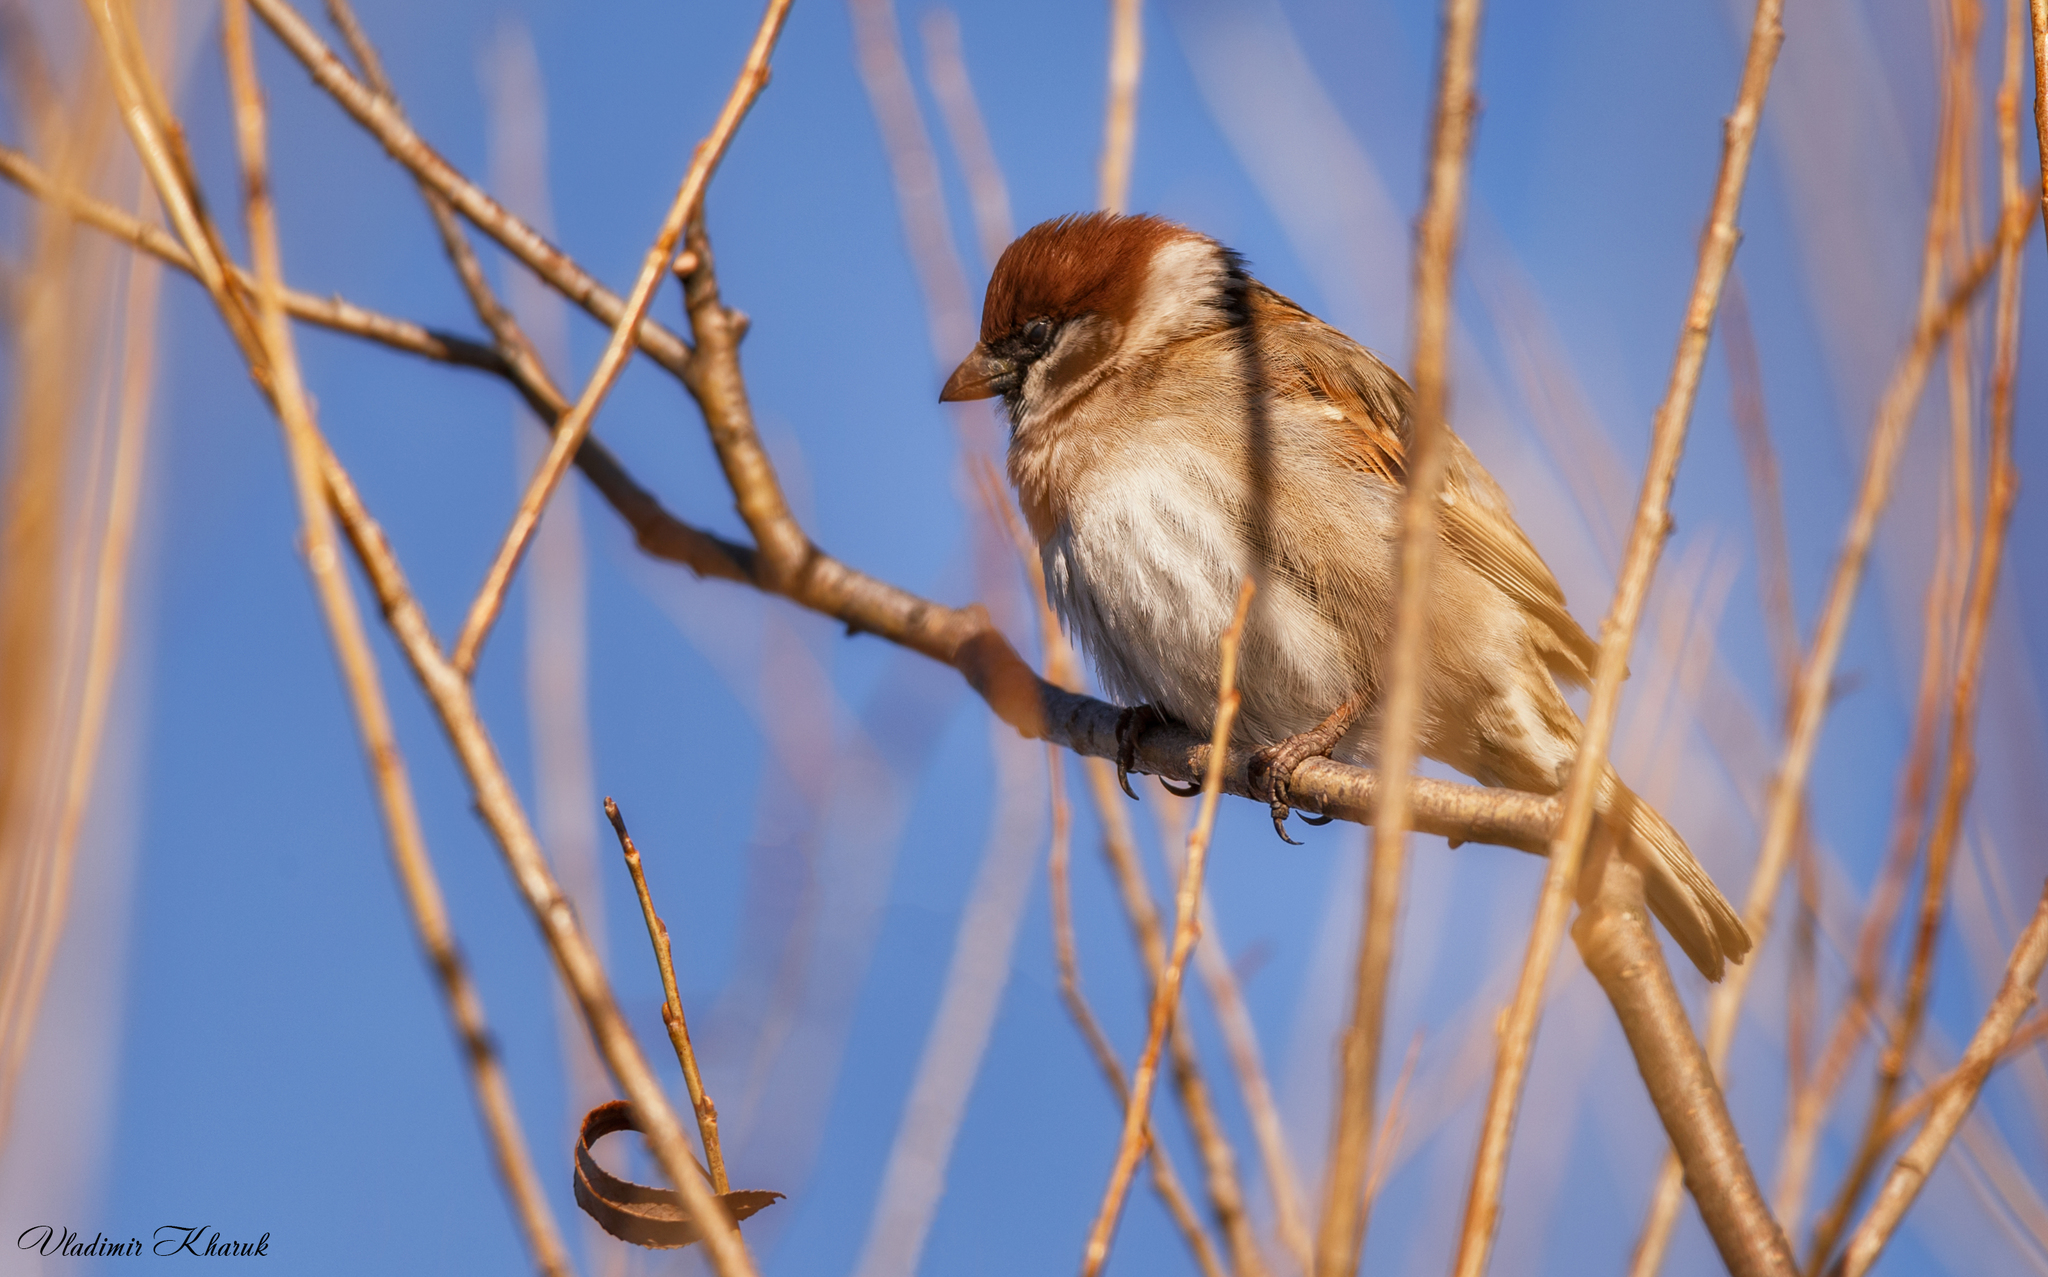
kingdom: Animalia
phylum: Chordata
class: Aves
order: Passeriformes
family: Passeridae
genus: Passer
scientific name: Passer montanus
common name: Eurasian tree sparrow
